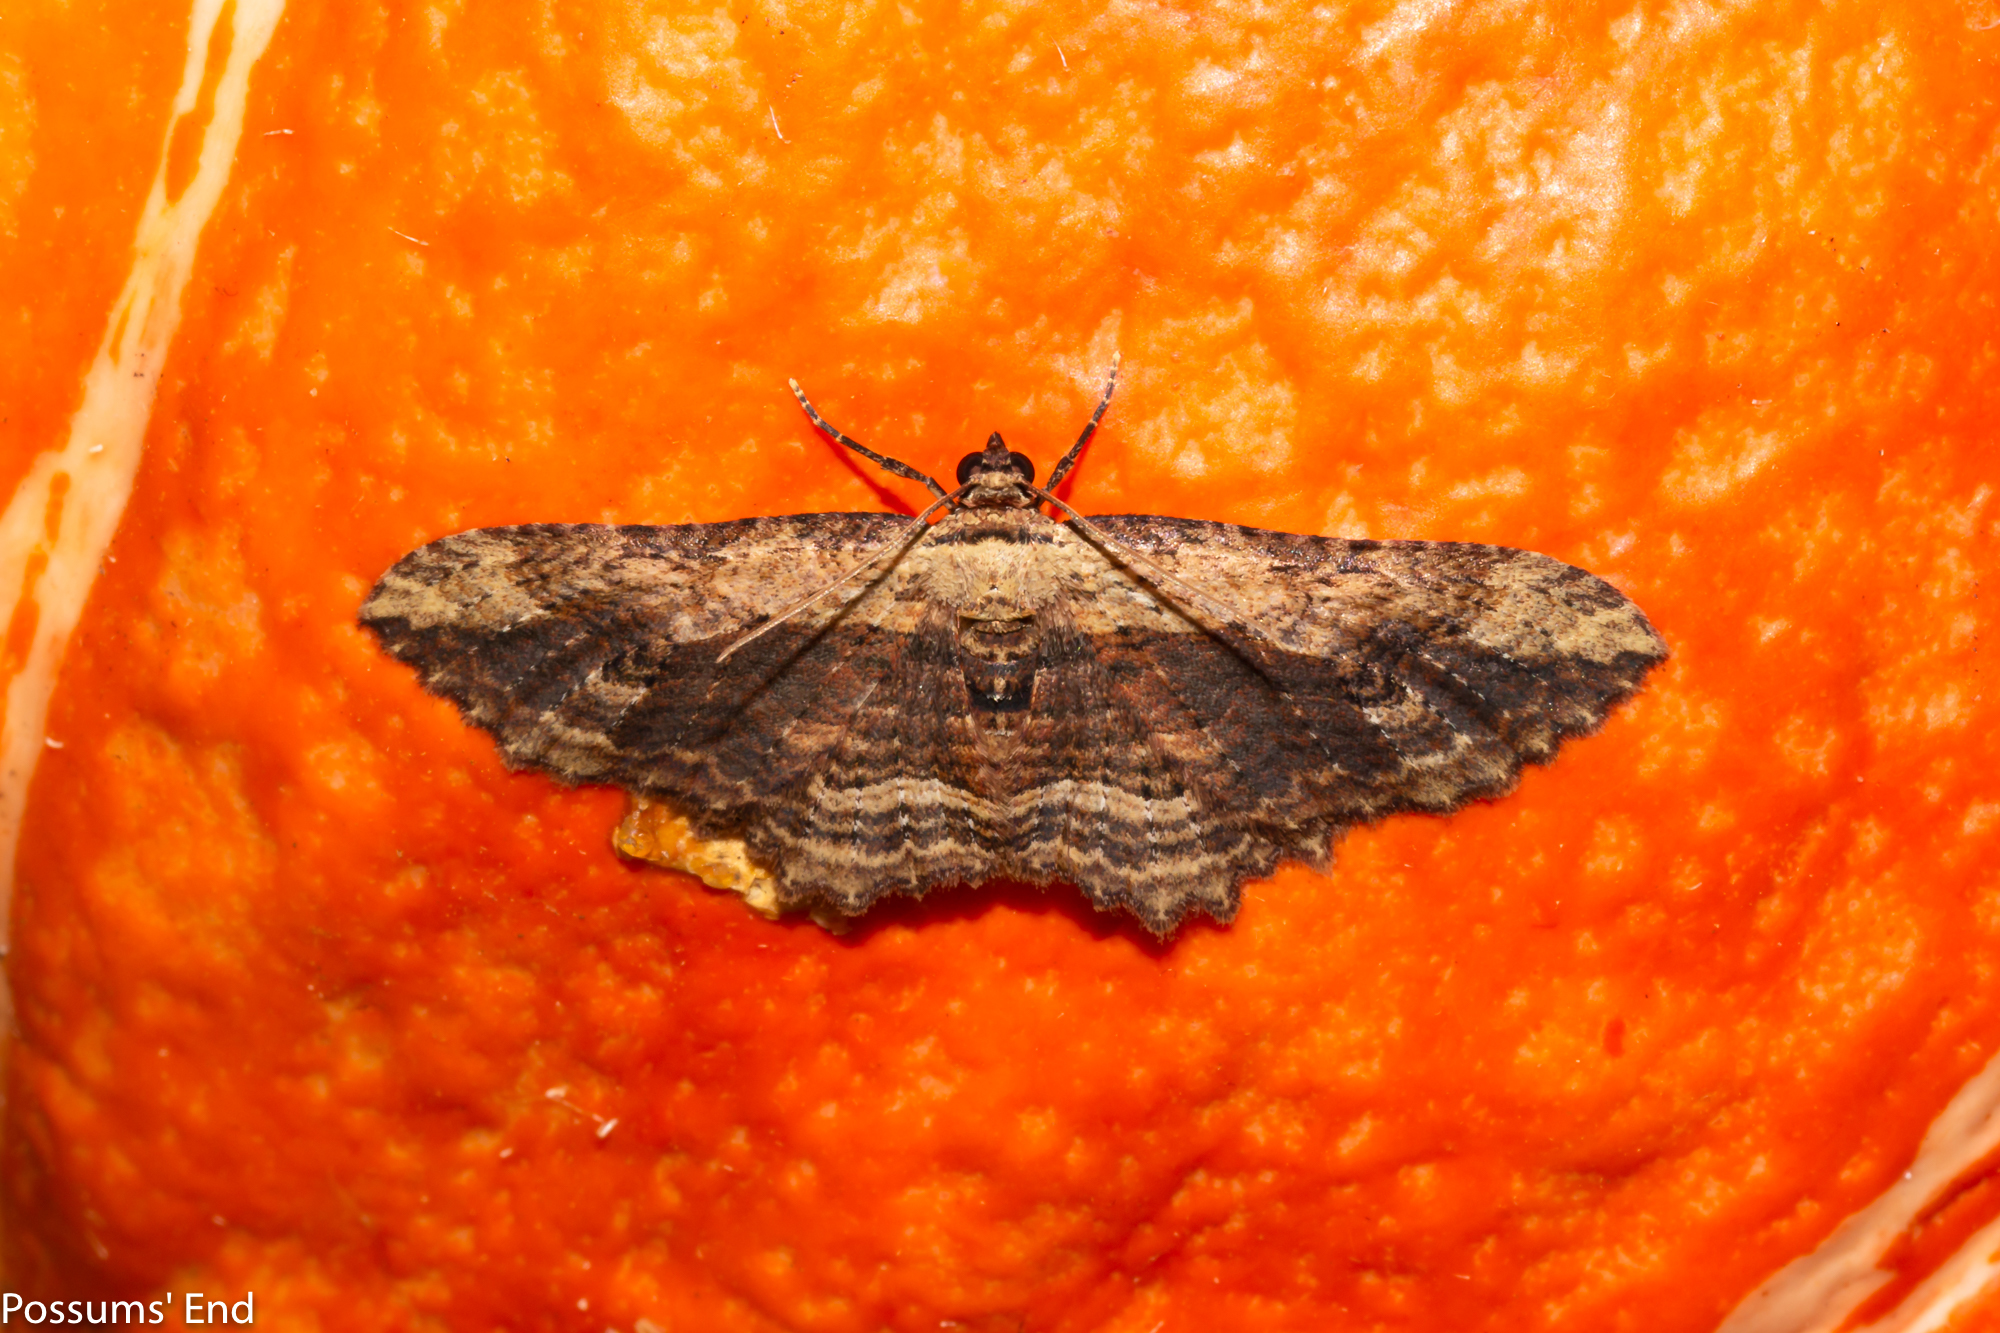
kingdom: Animalia
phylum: Arthropoda
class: Insecta
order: Lepidoptera
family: Geometridae
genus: Austrocidaria
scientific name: Austrocidaria bipartita
